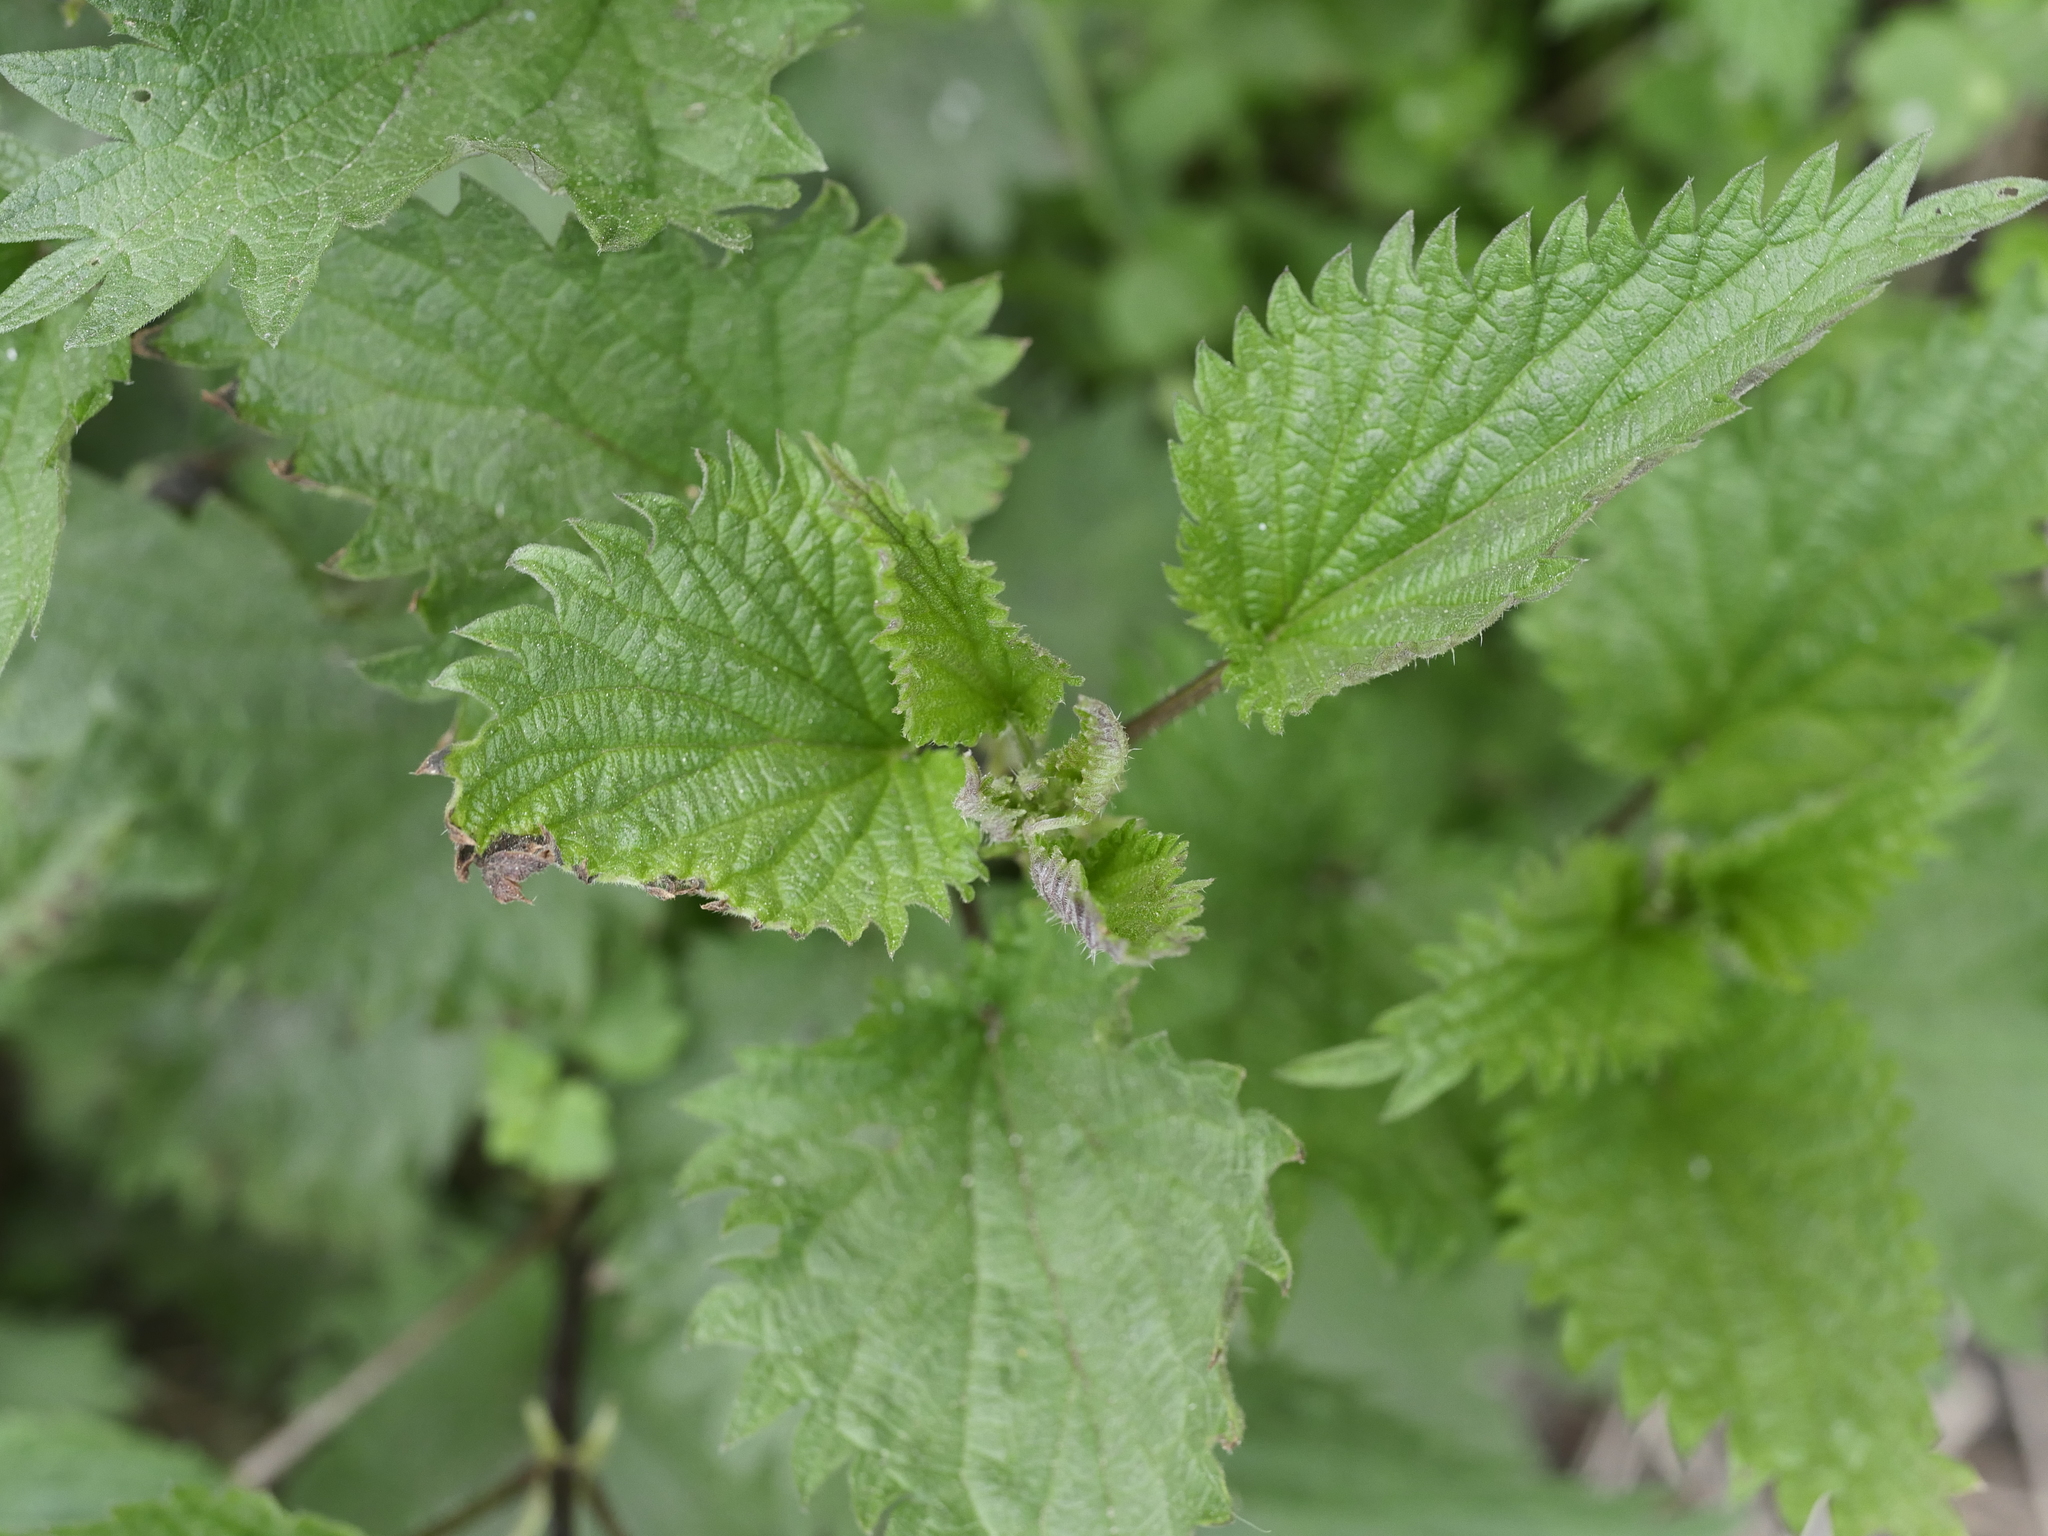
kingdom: Plantae
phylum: Tracheophyta
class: Magnoliopsida
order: Rosales
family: Urticaceae
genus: Urtica
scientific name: Urtica dioica
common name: Common nettle
